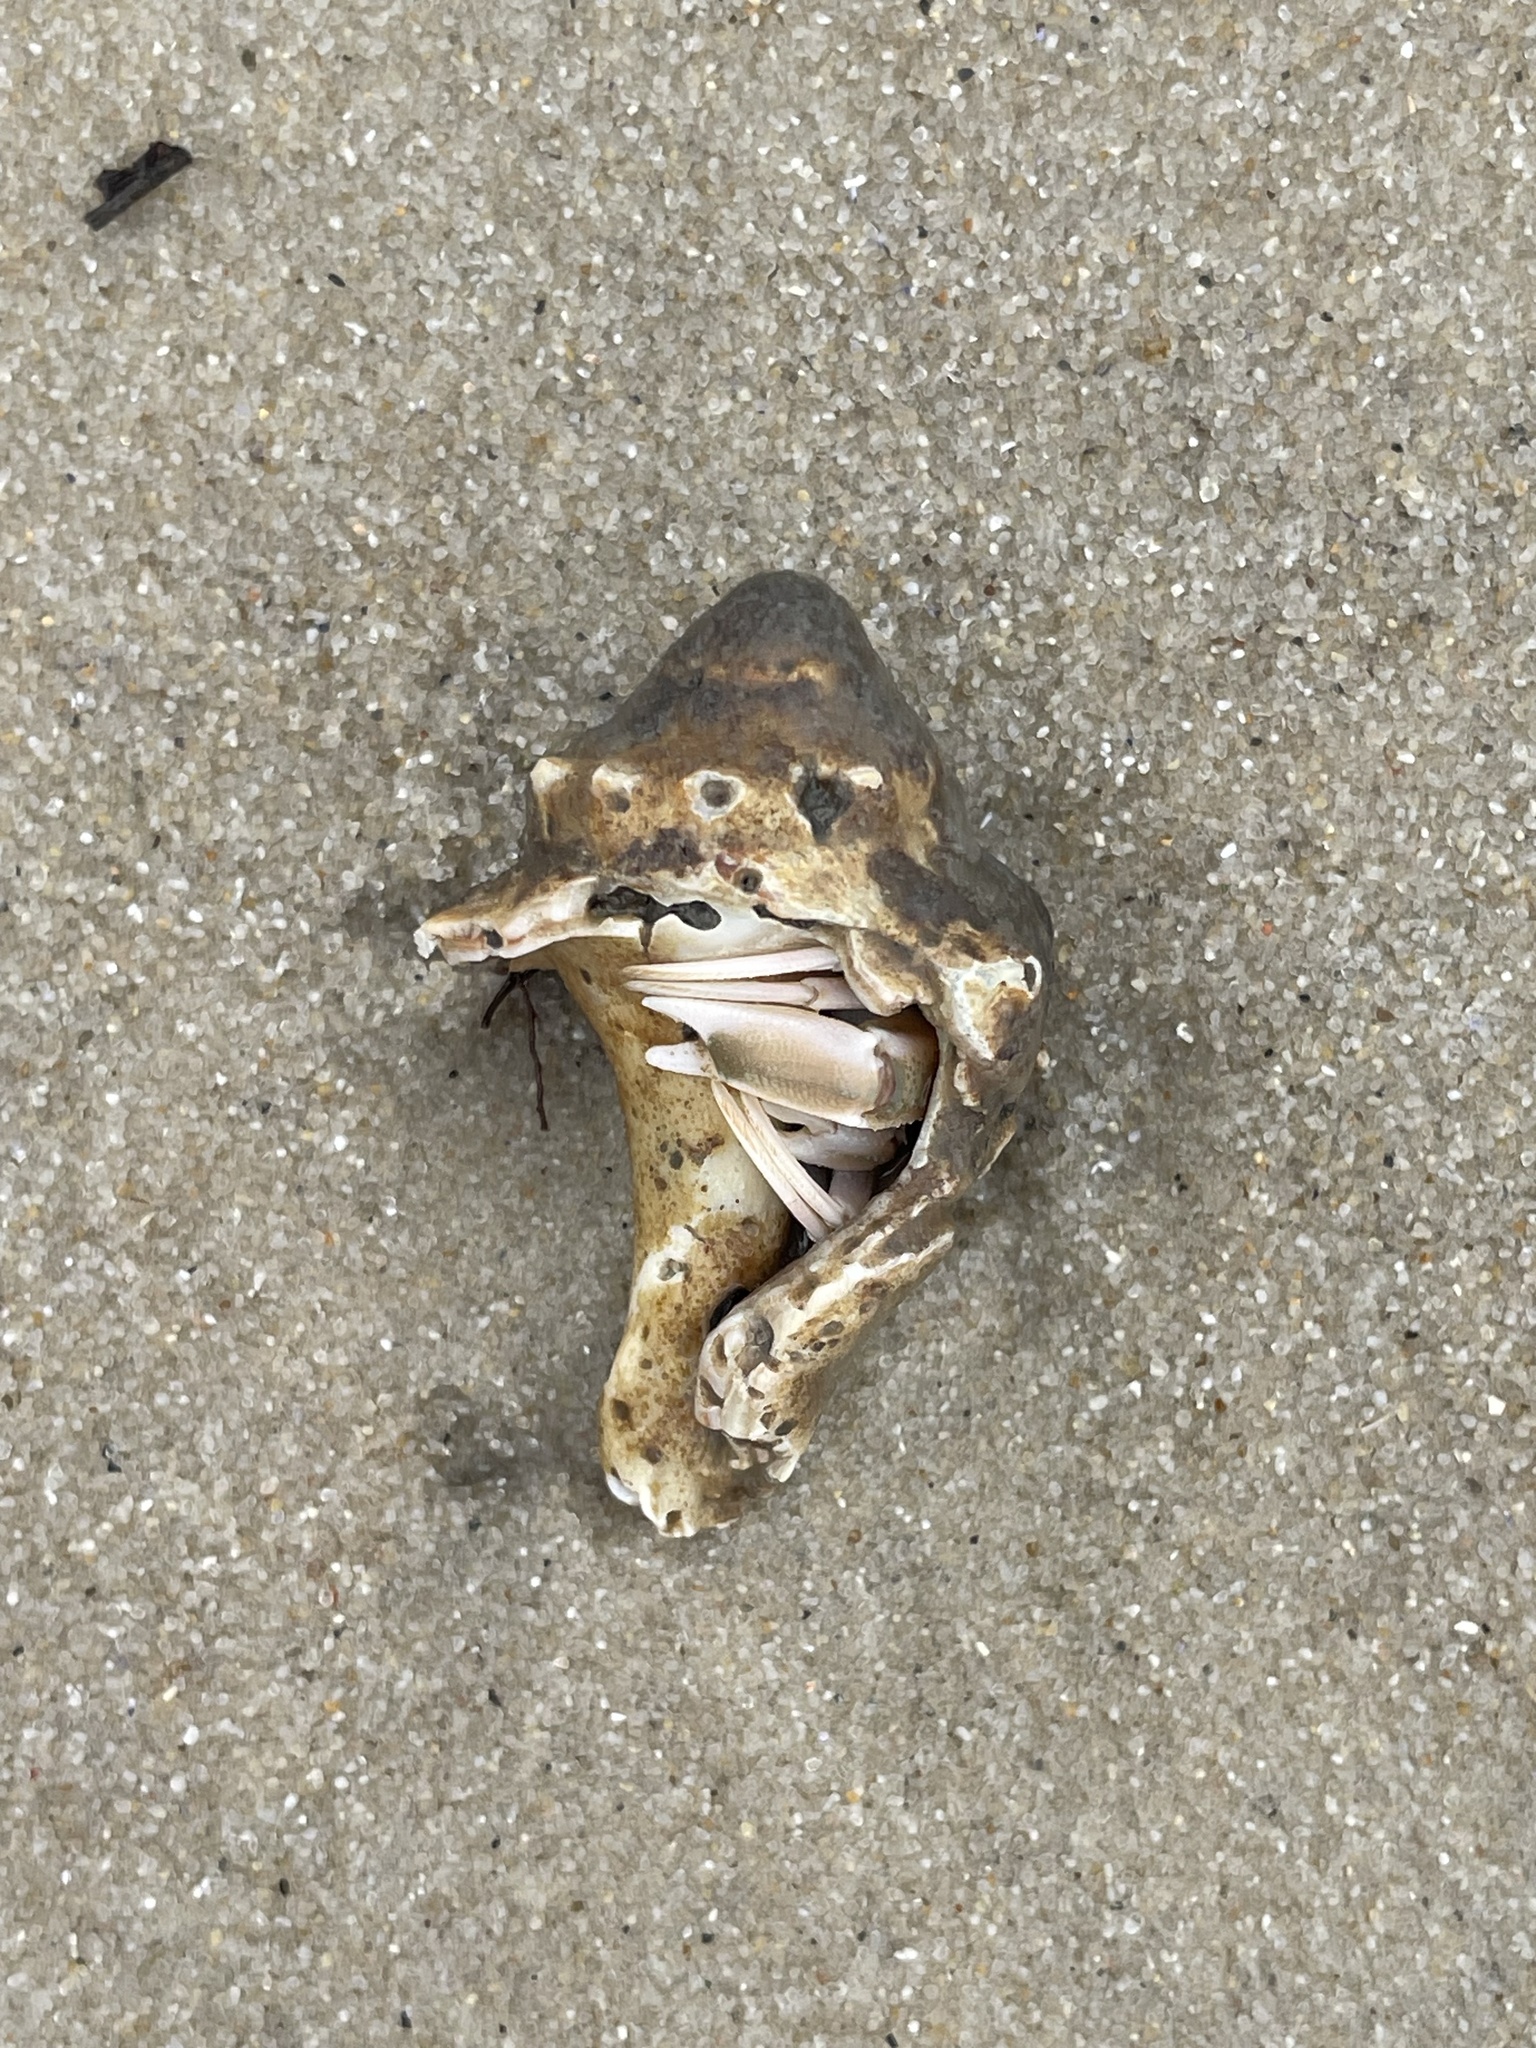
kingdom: Animalia
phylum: Arthropoda
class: Malacostraca
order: Decapoda
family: Paguridae
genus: Pagurus
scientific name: Pagurus longicarpus
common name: Long-armed hermit crab
